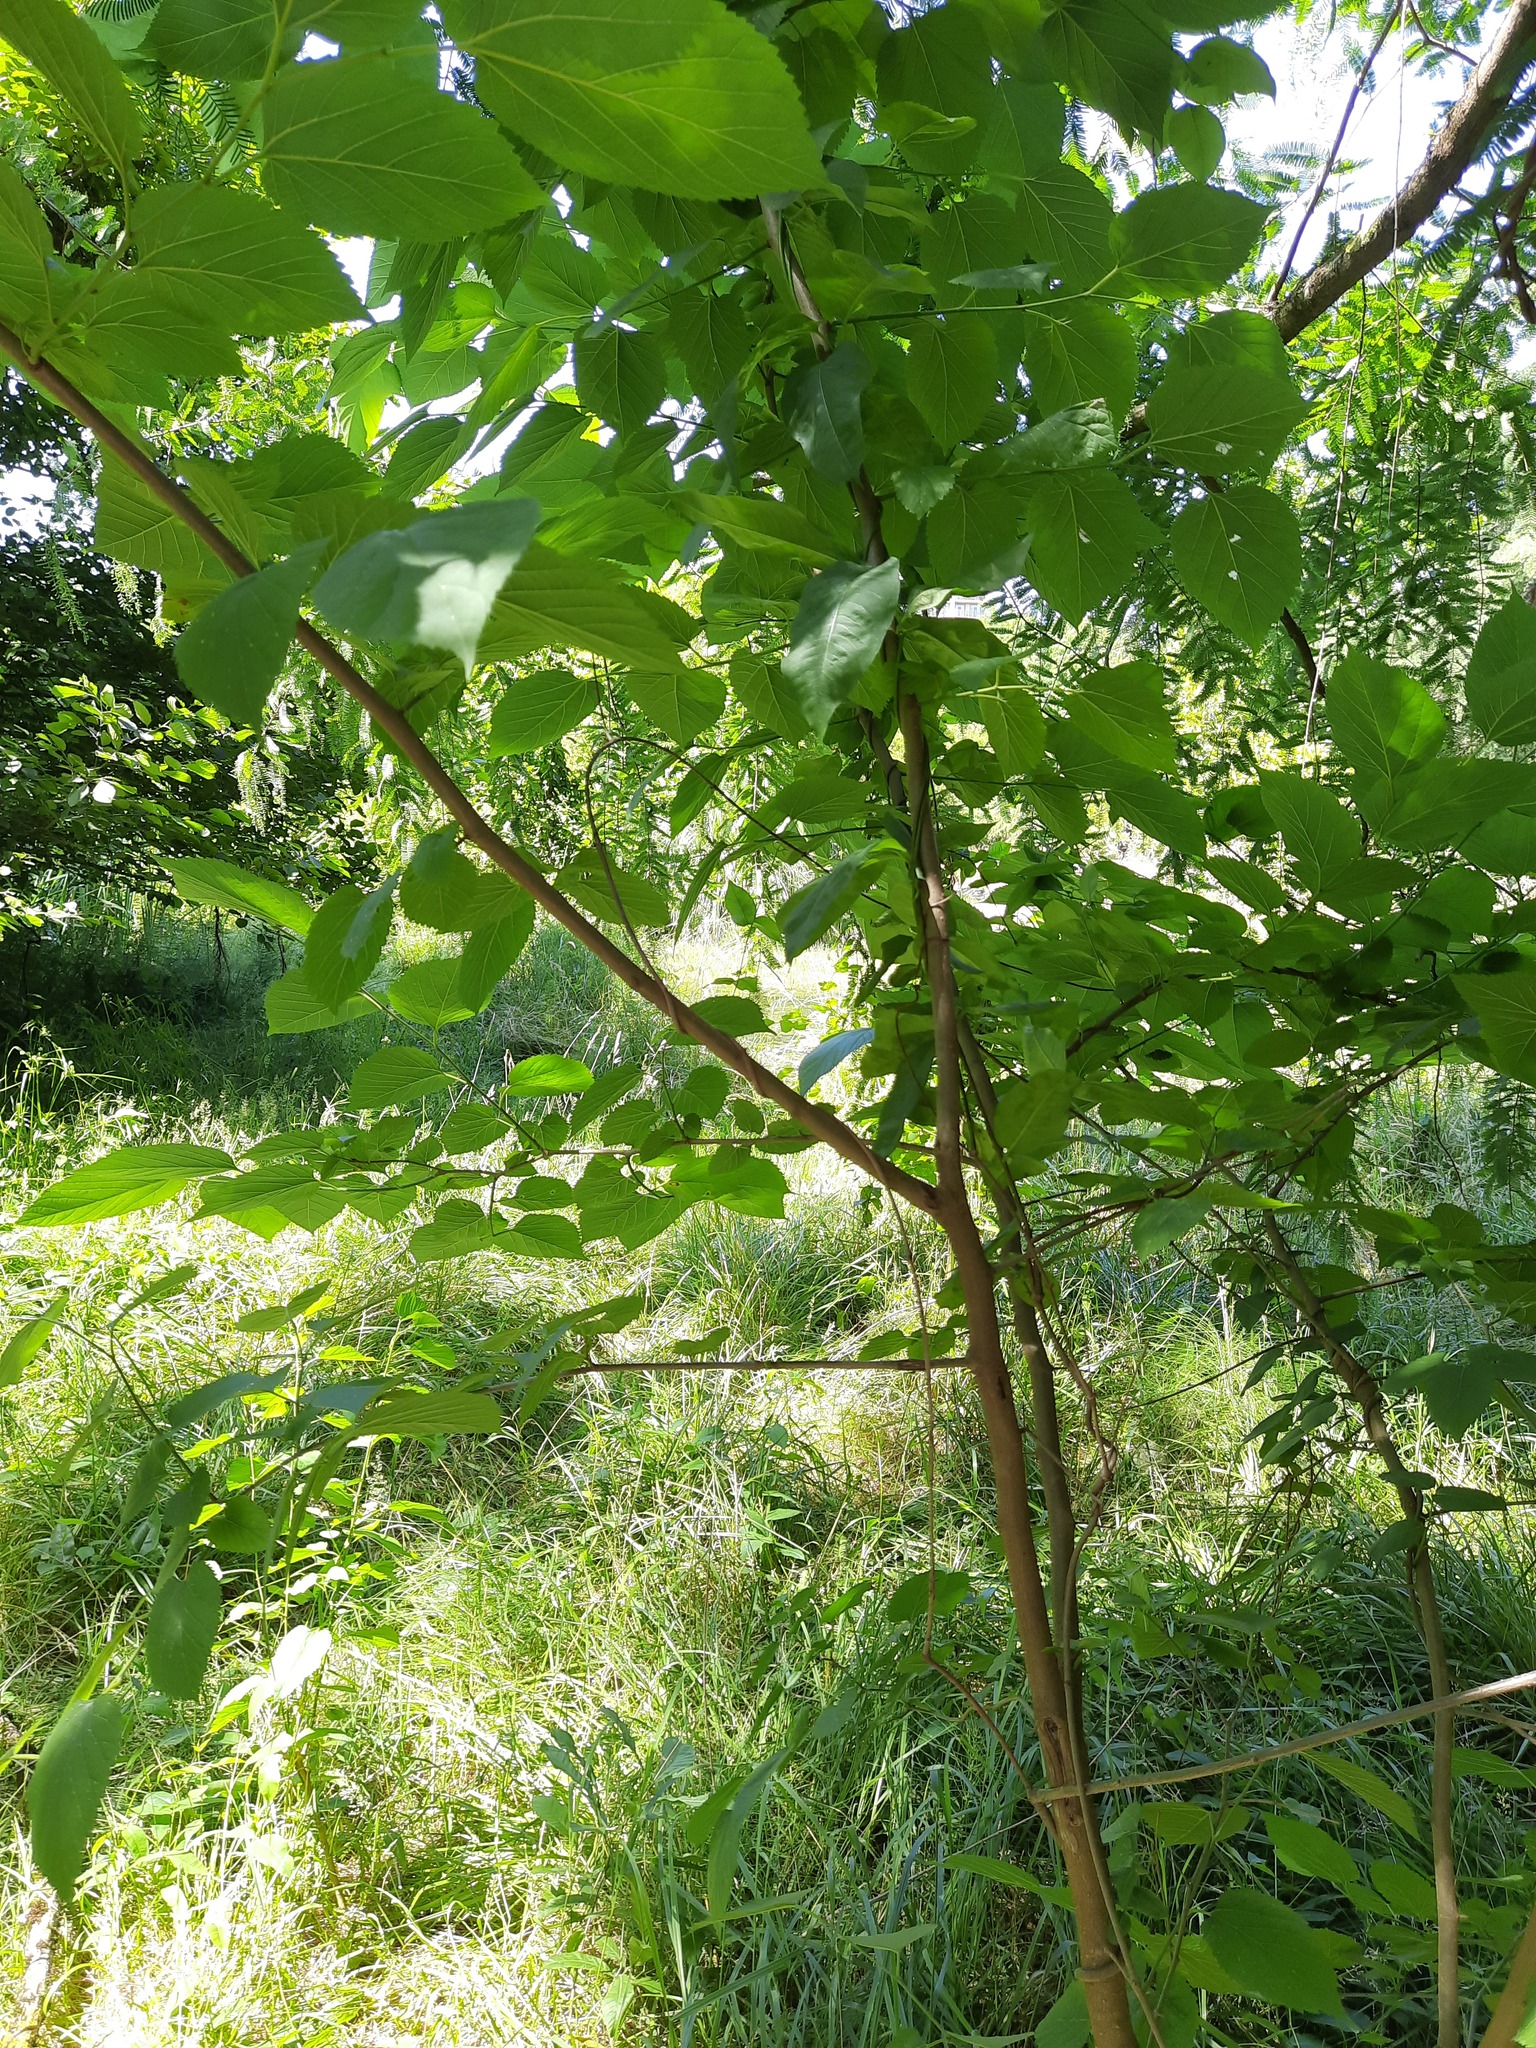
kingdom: Plantae
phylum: Tracheophyta
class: Magnoliopsida
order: Rosales
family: Moraceae
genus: Morus
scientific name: Morus alba
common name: White mulberry
